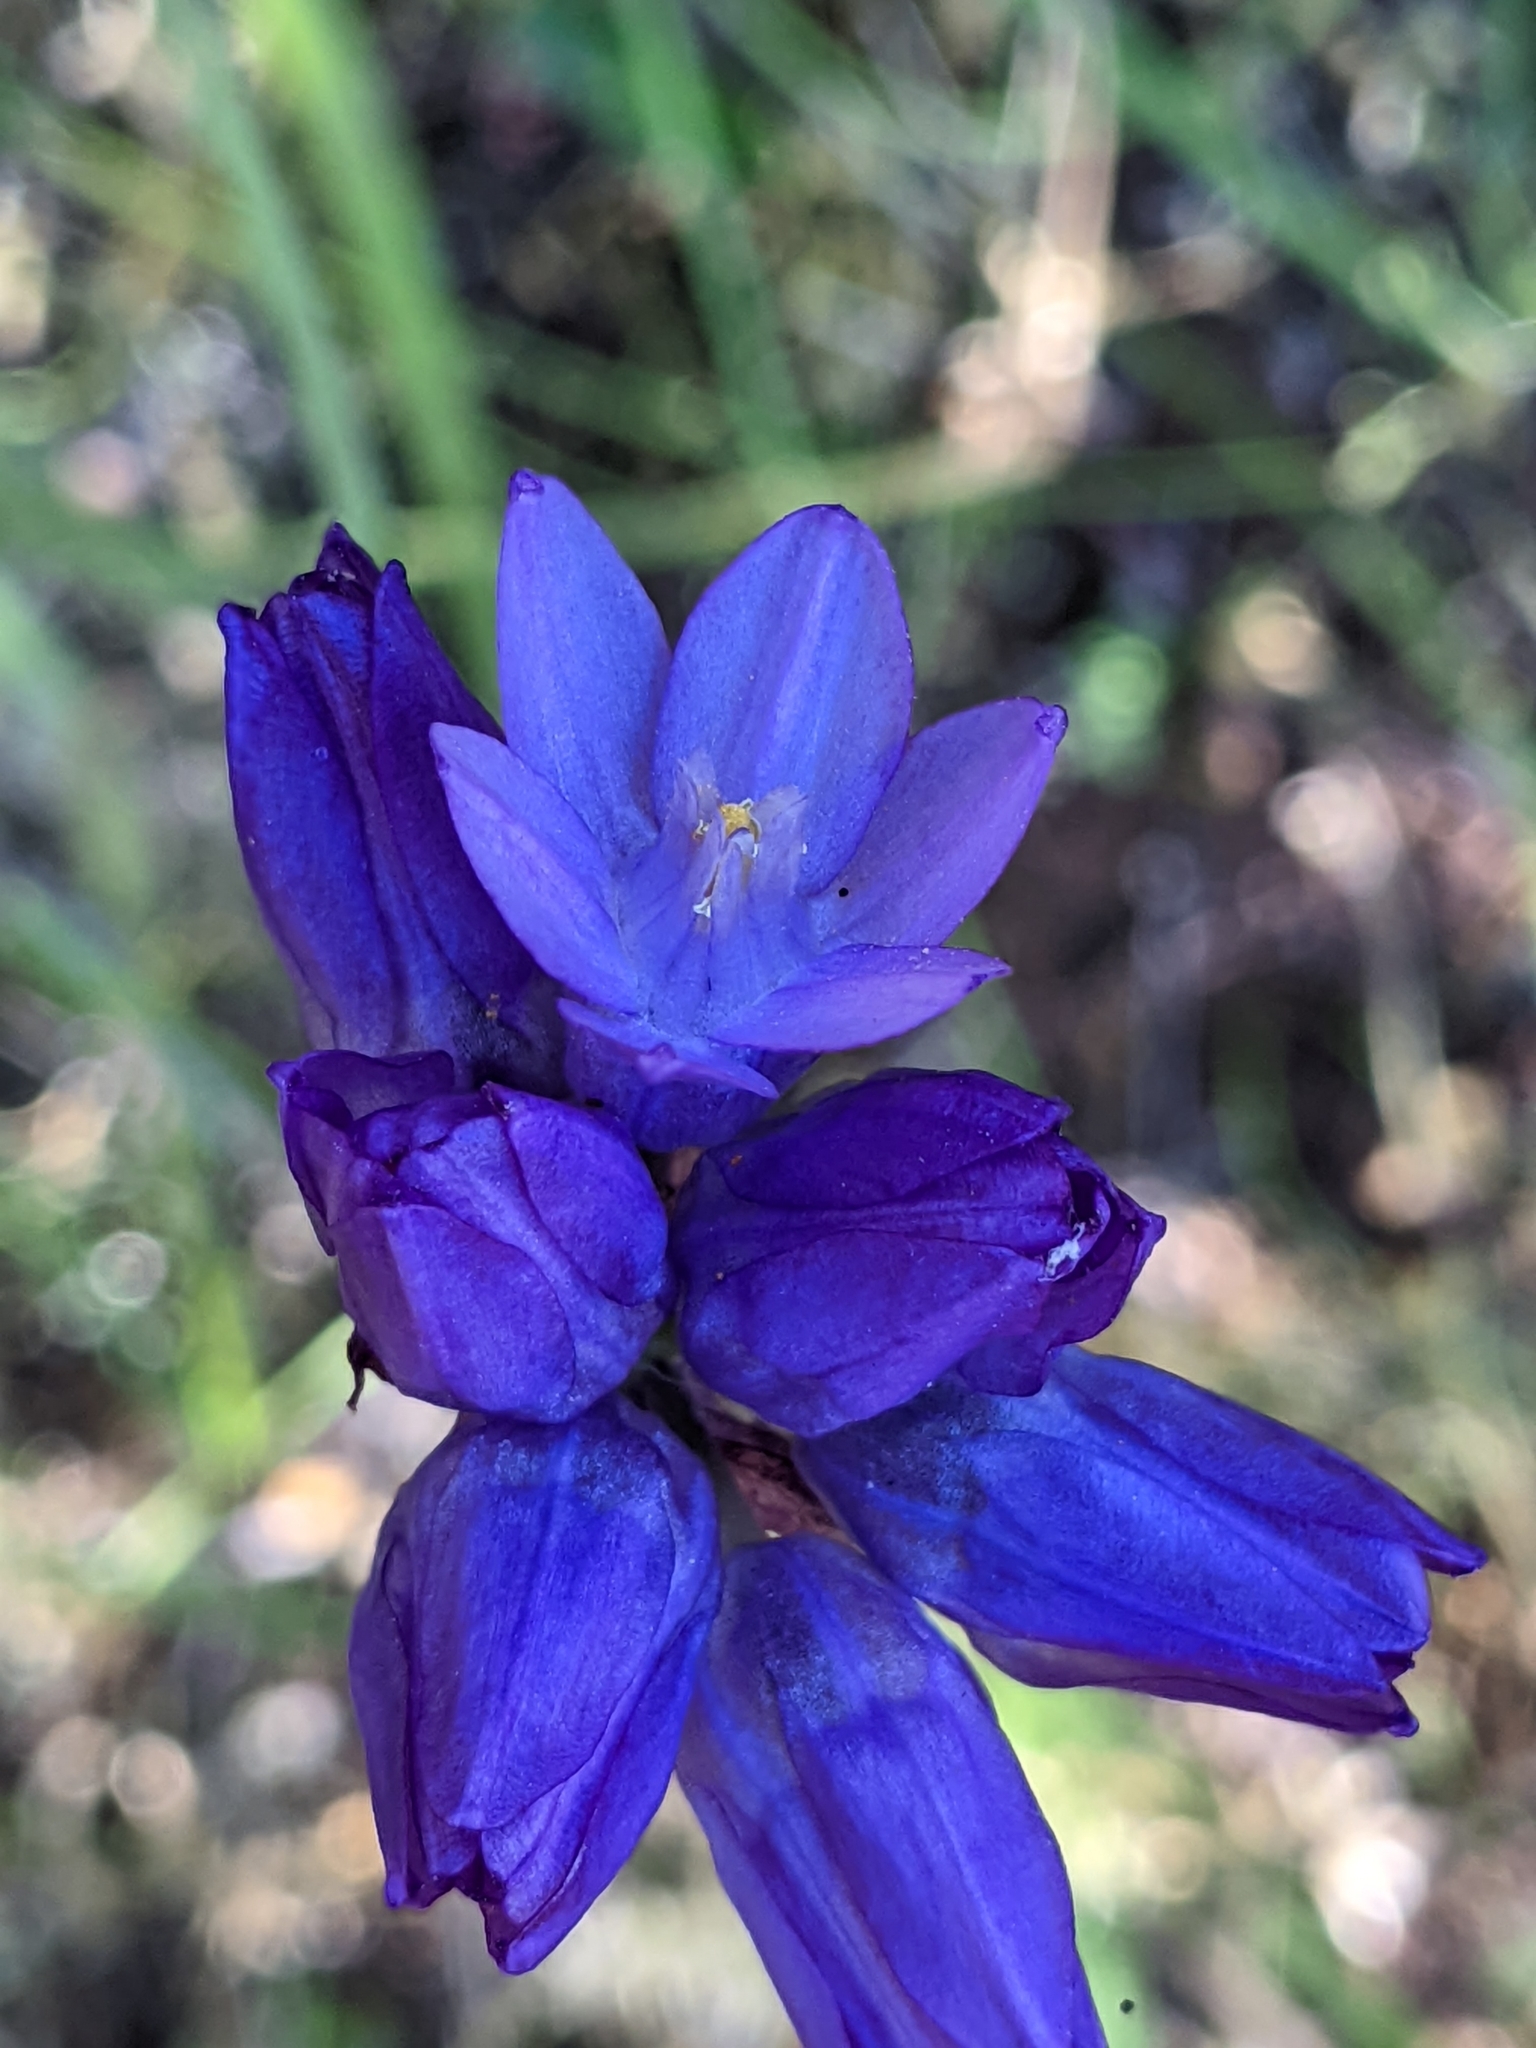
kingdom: Plantae
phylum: Tracheophyta
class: Liliopsida
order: Asparagales
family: Asparagaceae
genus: Dipterostemon
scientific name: Dipterostemon capitatus
